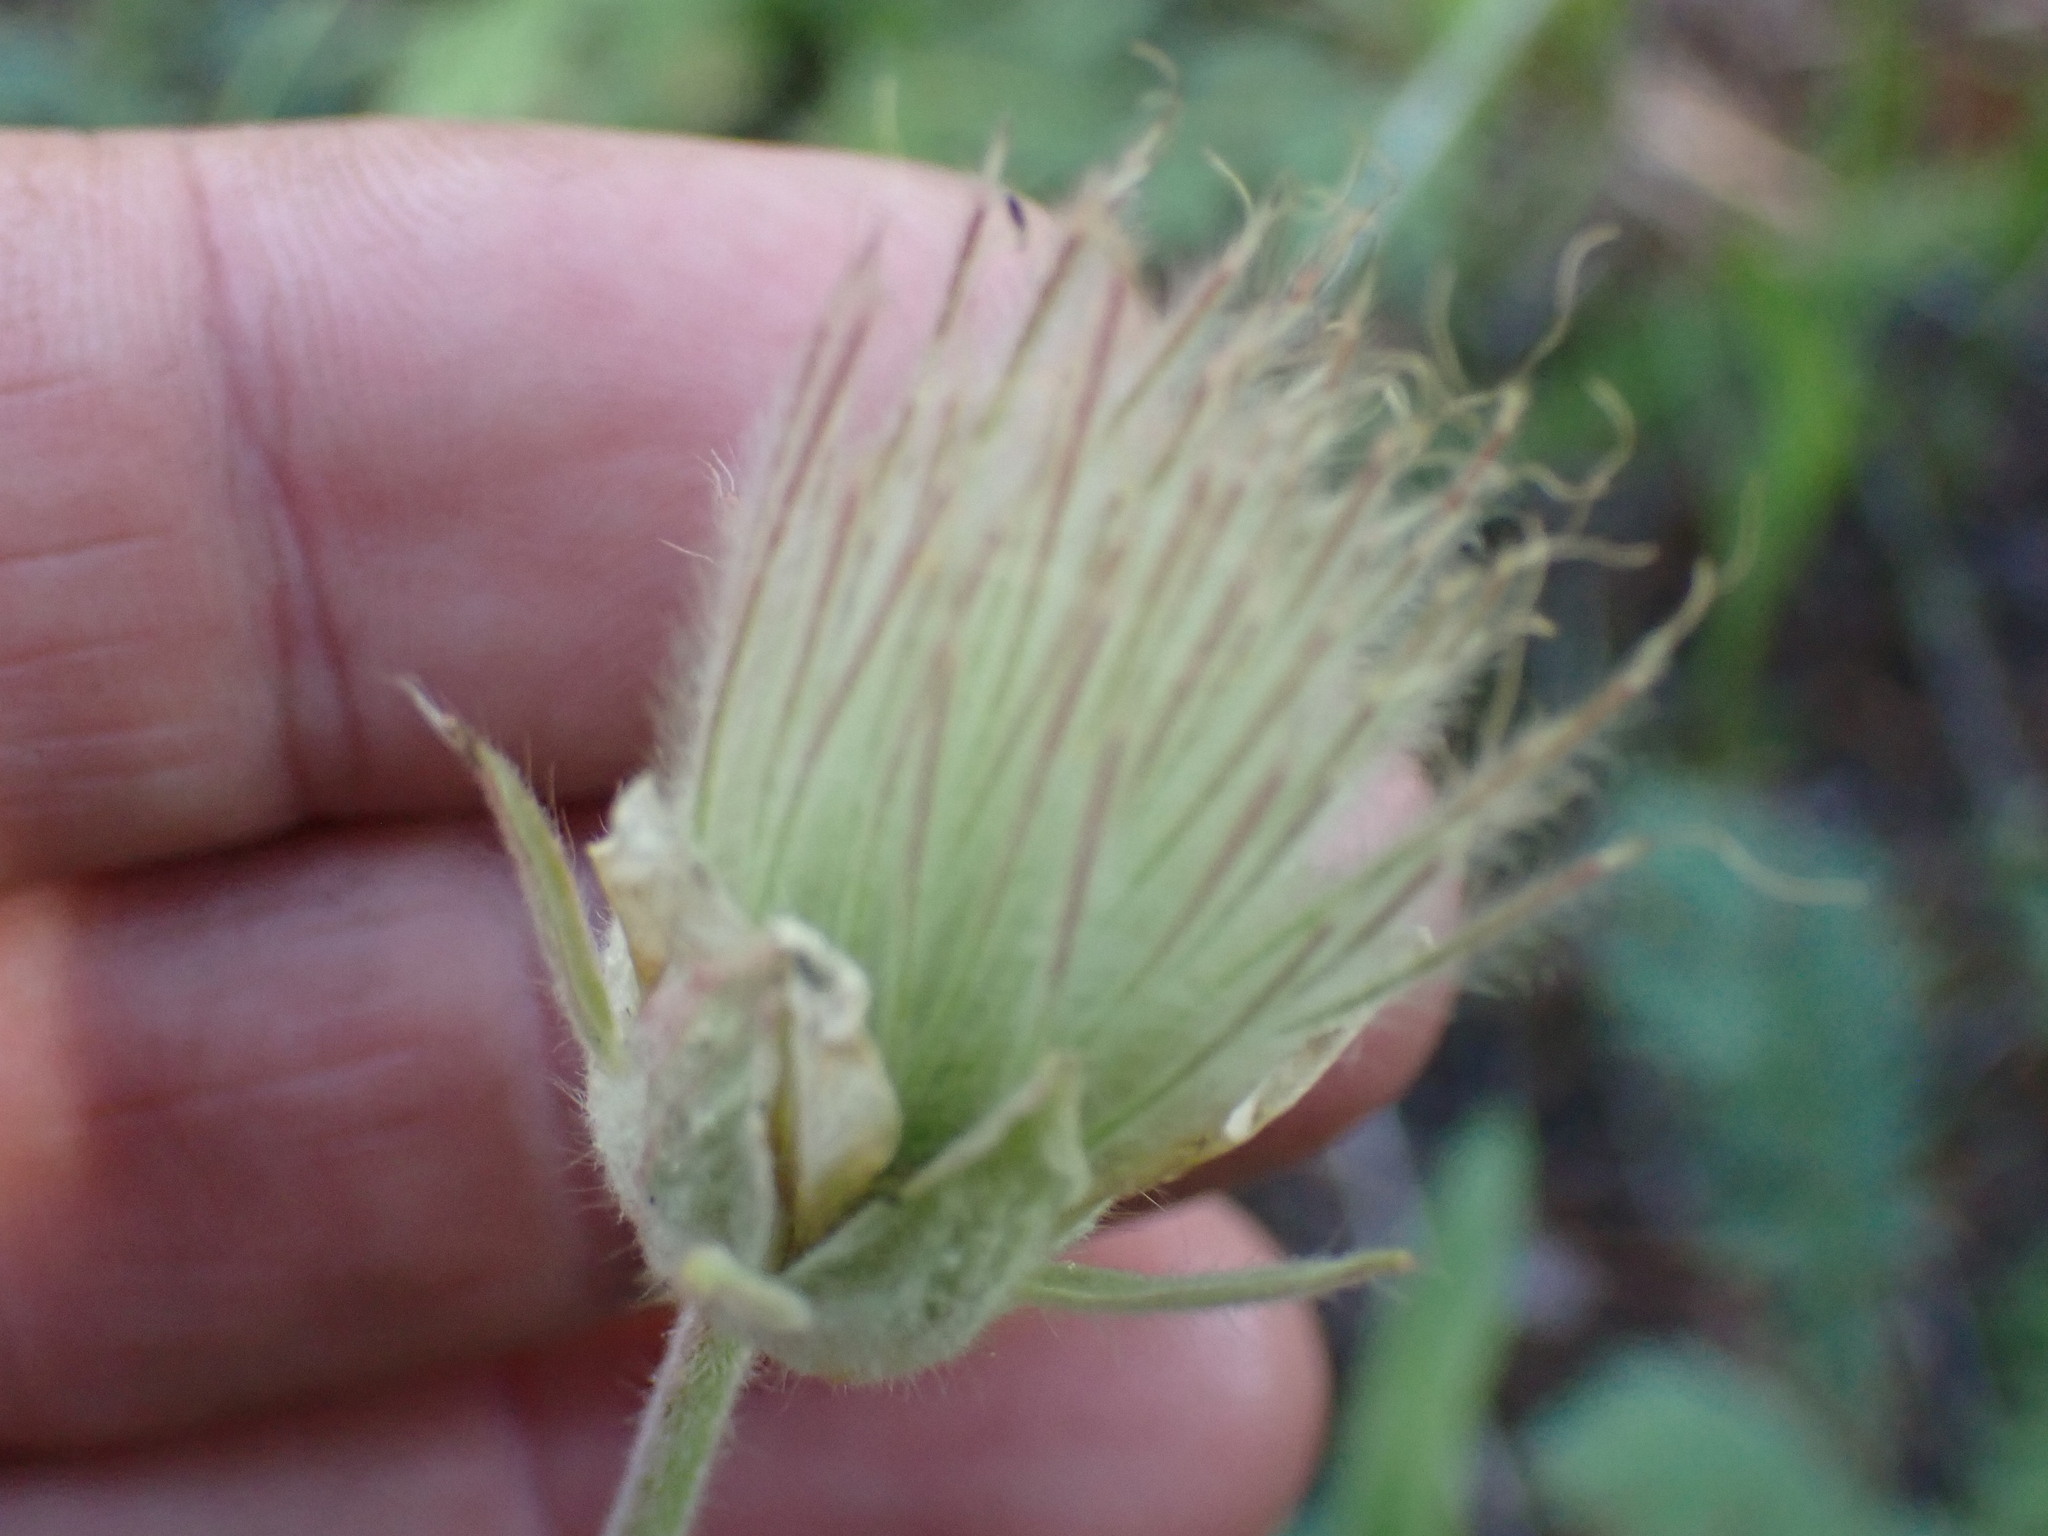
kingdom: Plantae
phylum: Tracheophyta
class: Magnoliopsida
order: Rosales
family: Rosaceae
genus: Geum
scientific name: Geum triflorum
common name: Old man's whiskers
